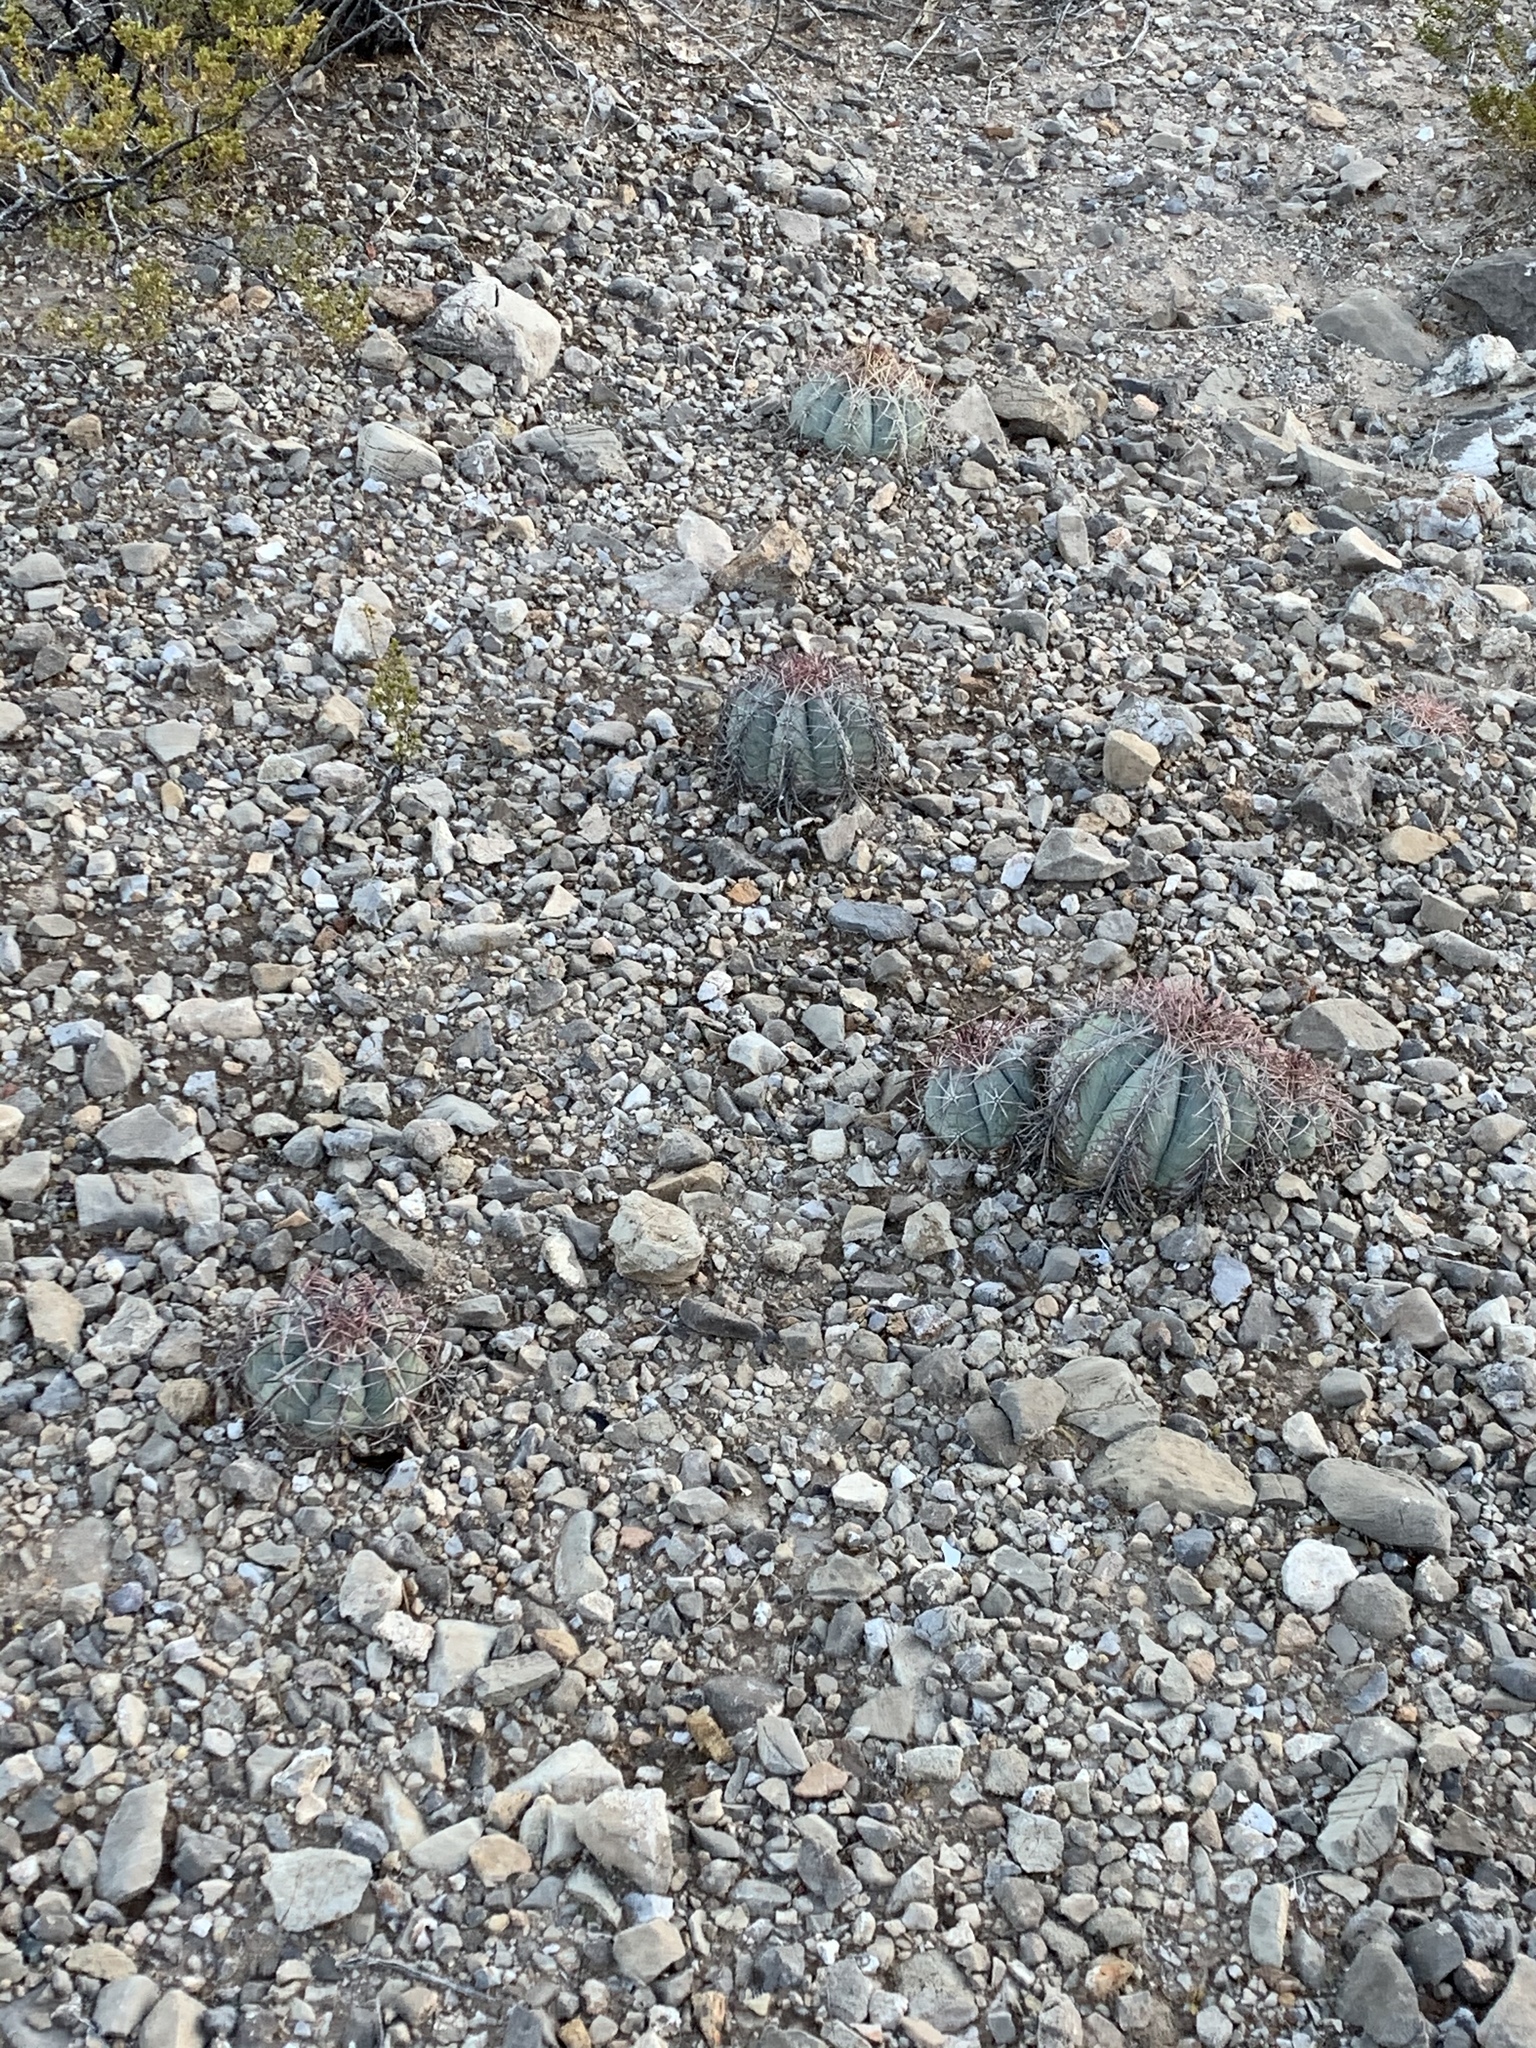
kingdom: Plantae
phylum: Tracheophyta
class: Magnoliopsida
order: Caryophyllales
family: Cactaceae
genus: Echinocactus
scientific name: Echinocactus horizonthalonius
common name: Devilshead
